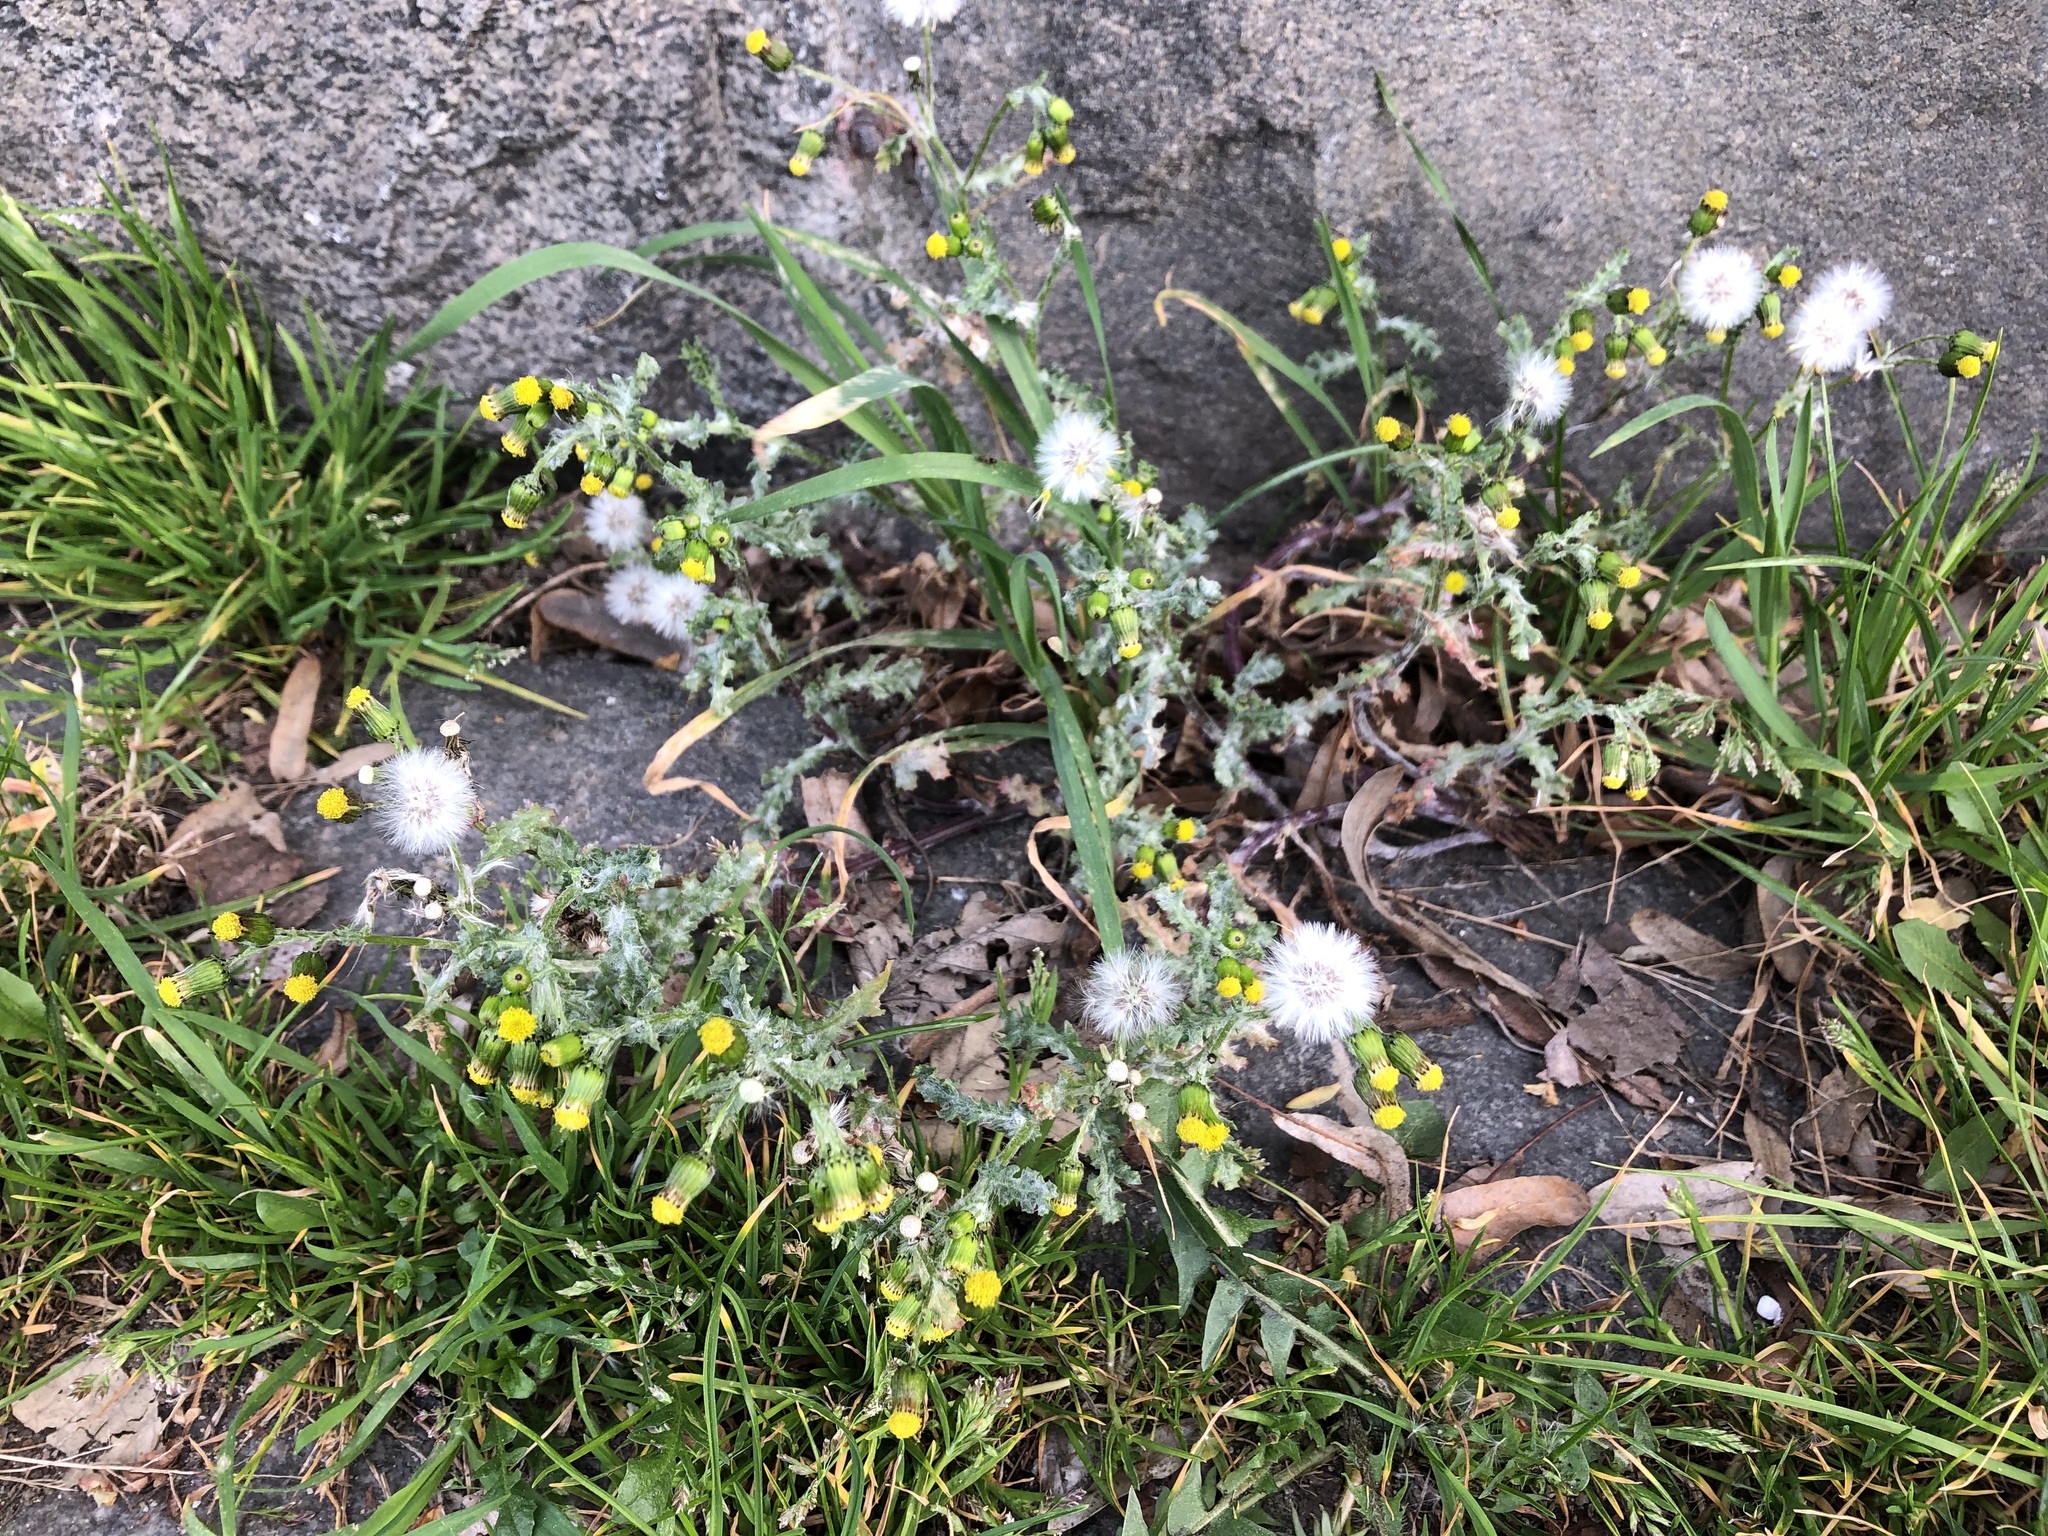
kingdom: Plantae
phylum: Tracheophyta
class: Magnoliopsida
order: Asterales
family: Asteraceae
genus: Senecio
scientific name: Senecio vulgaris
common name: Old-man-in-the-spring
